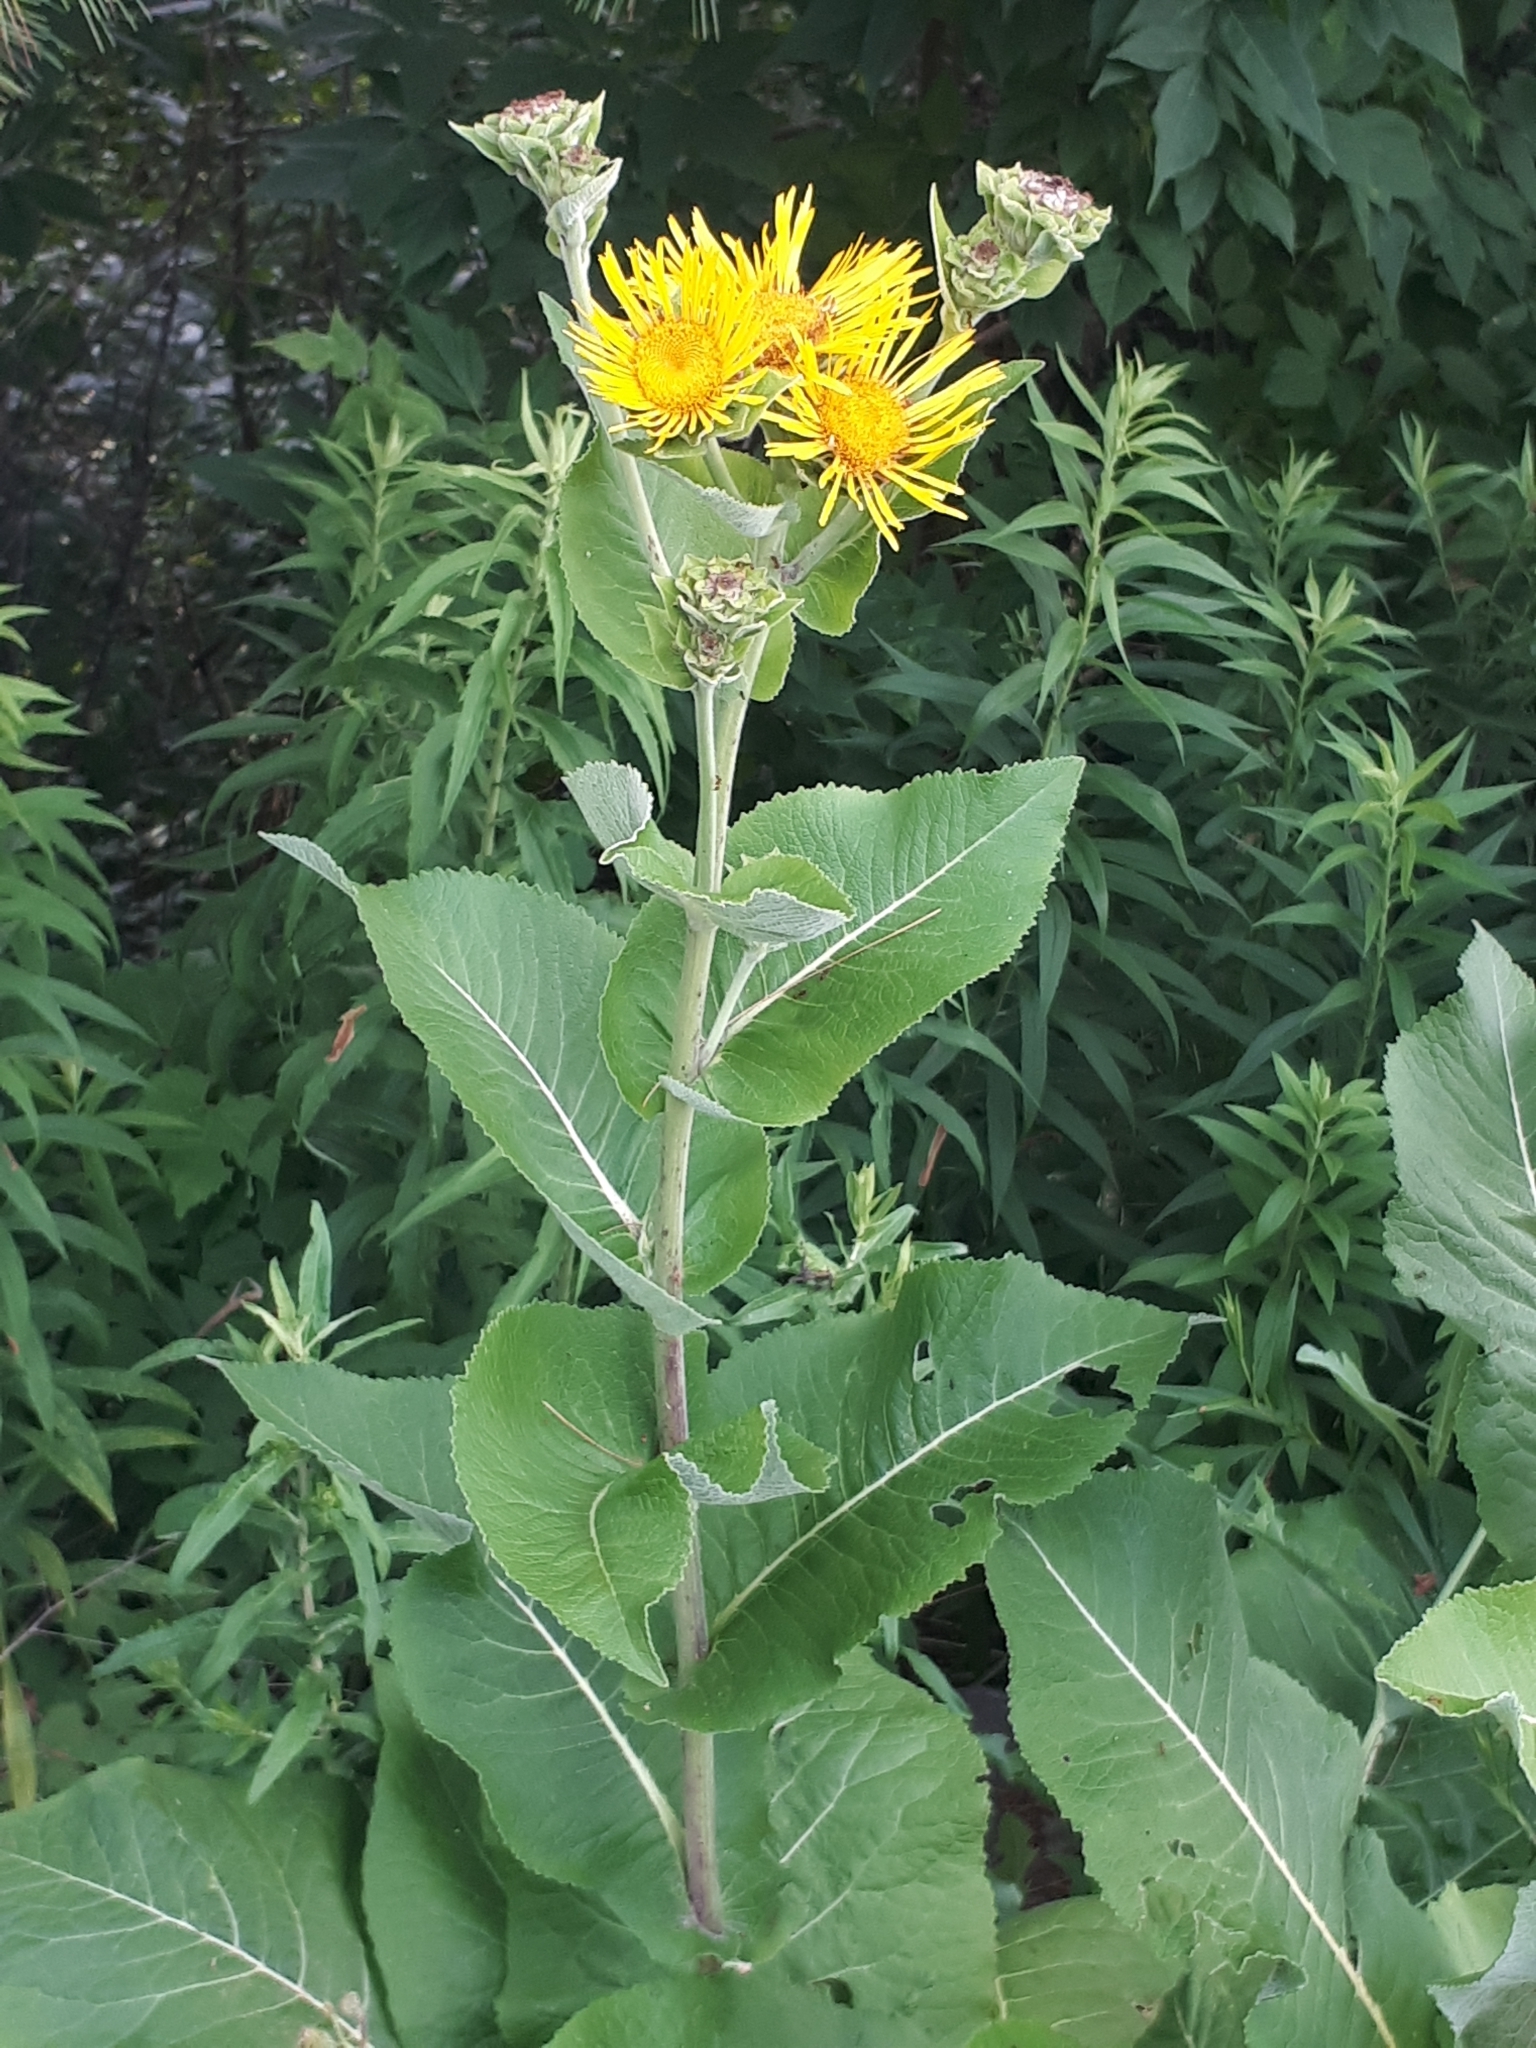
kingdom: Plantae
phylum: Tracheophyta
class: Magnoliopsida
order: Asterales
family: Asteraceae
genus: Inula
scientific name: Inula helenium
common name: Elecampane
